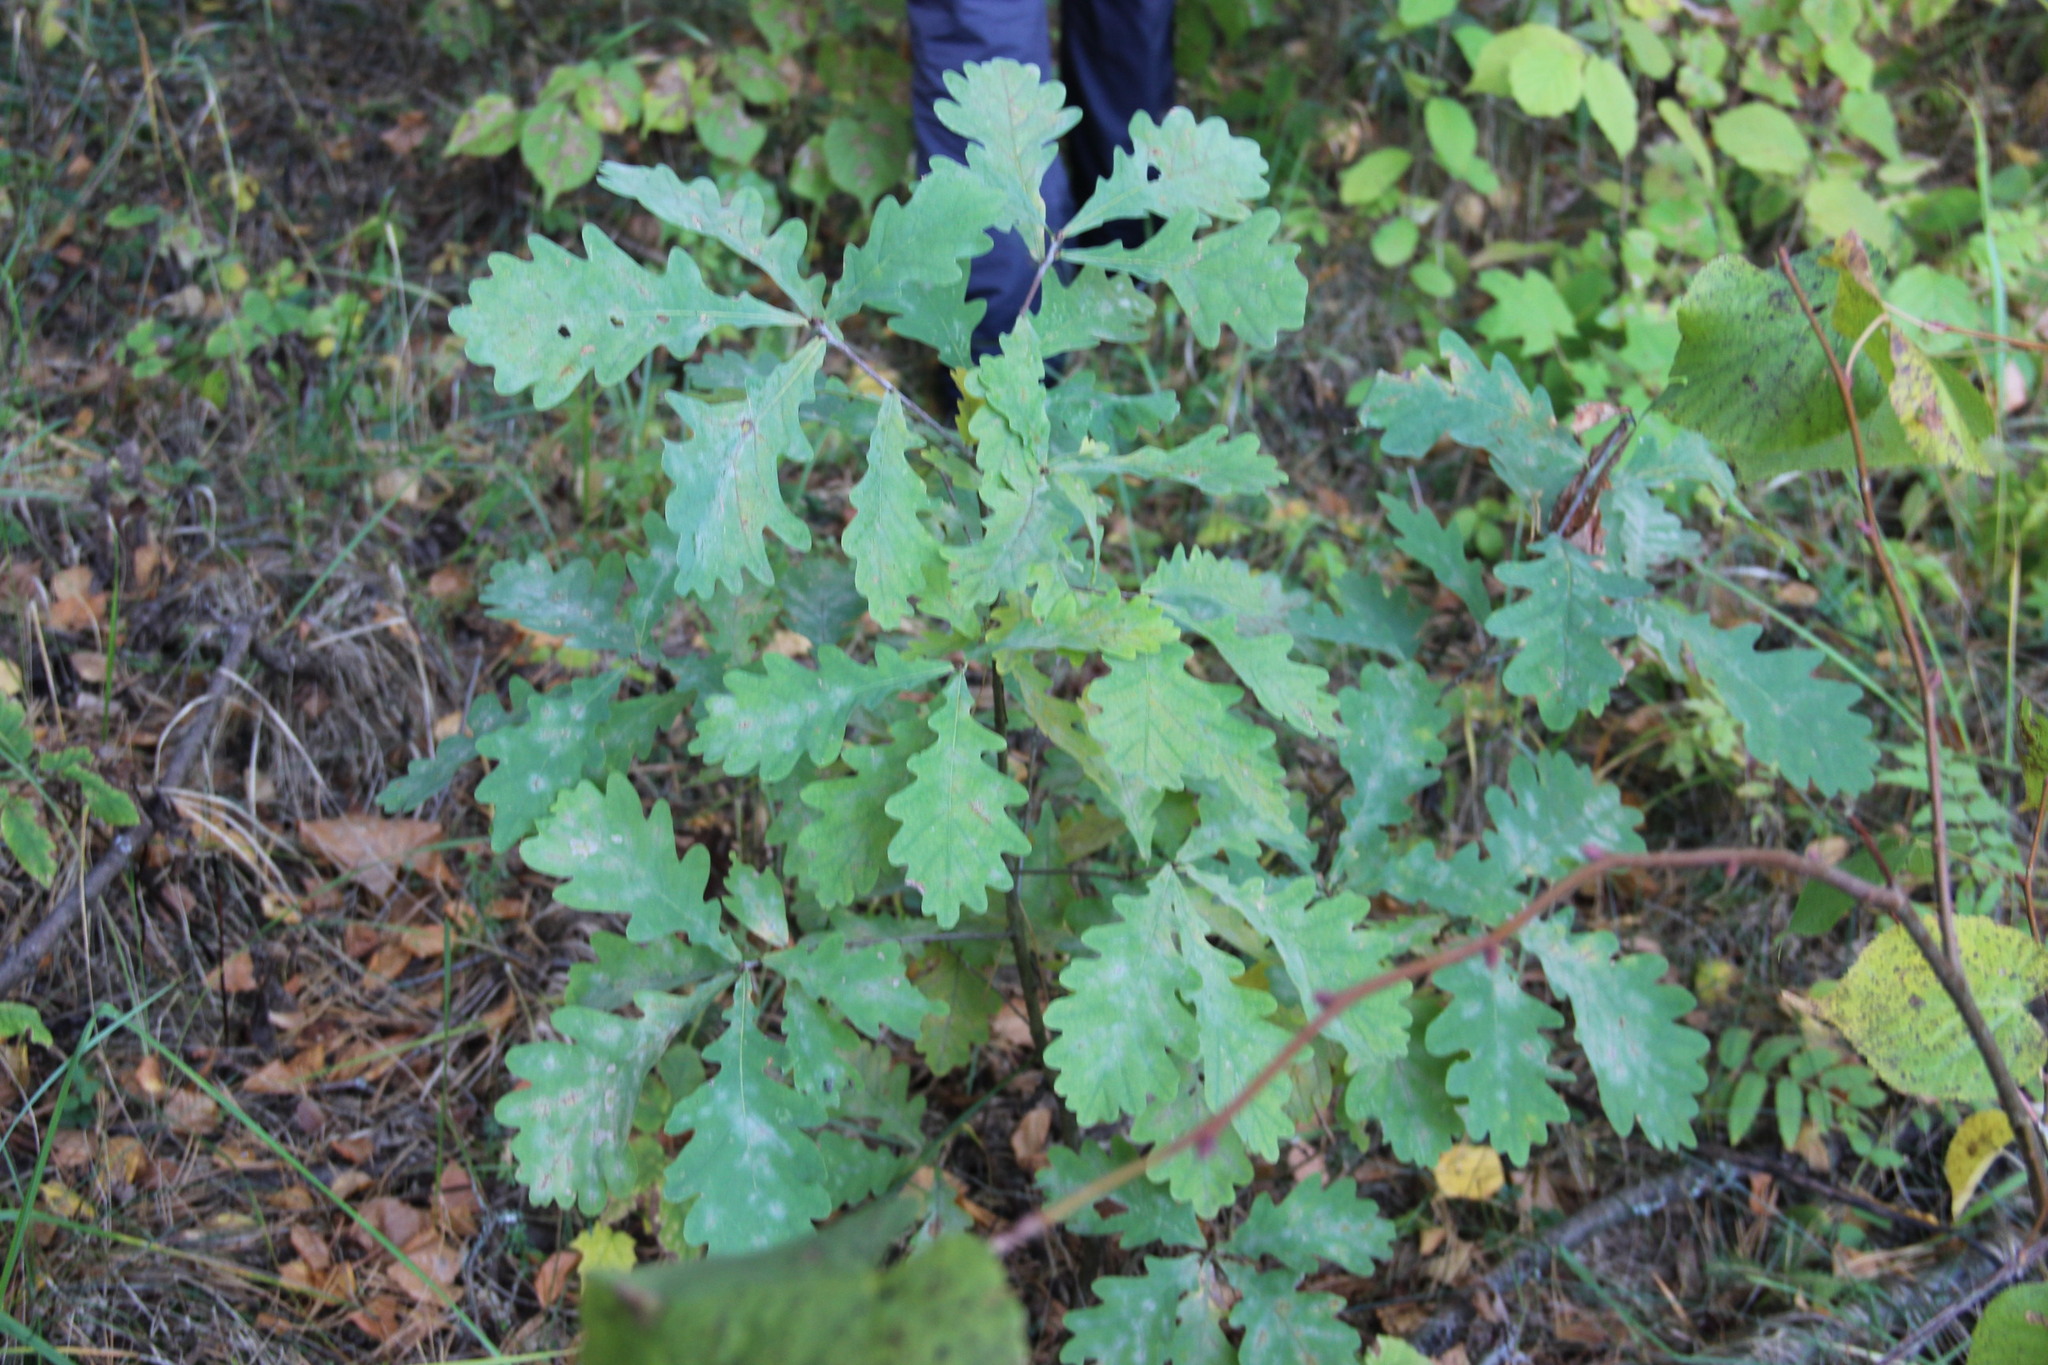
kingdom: Plantae
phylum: Tracheophyta
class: Magnoliopsida
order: Fagales
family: Fagaceae
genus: Quercus
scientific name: Quercus robur
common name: Pedunculate oak
